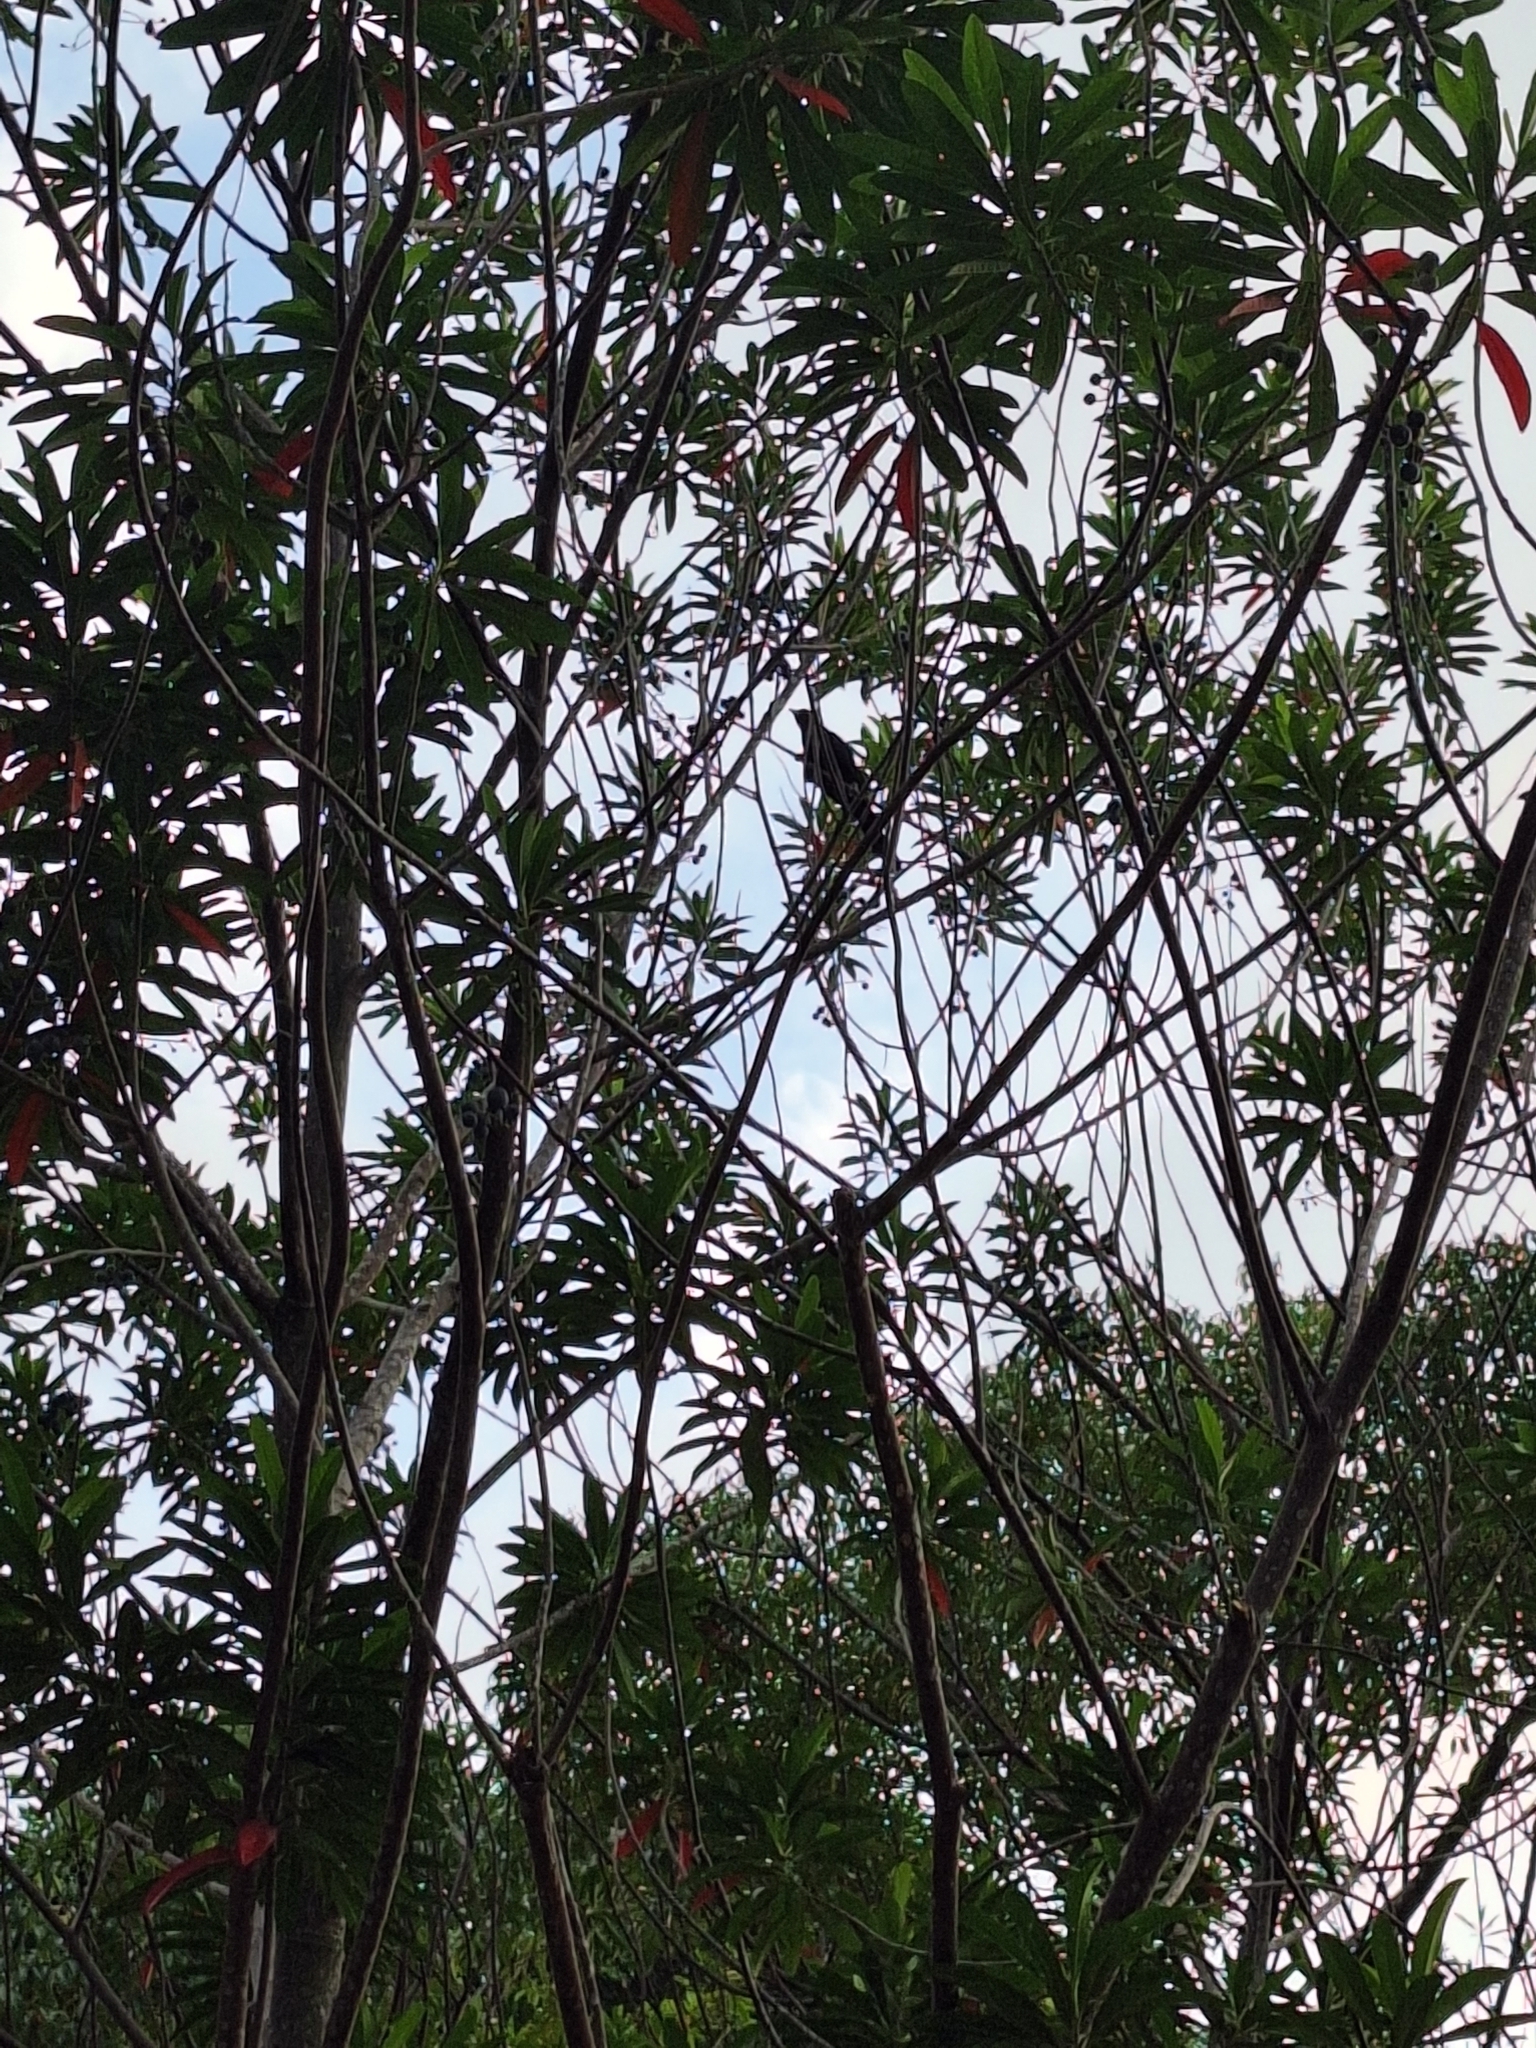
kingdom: Animalia
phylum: Chordata
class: Aves
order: Cuculiformes
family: Cuculidae
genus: Eudynamys
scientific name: Eudynamys scolopaceus
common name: Asian koel
